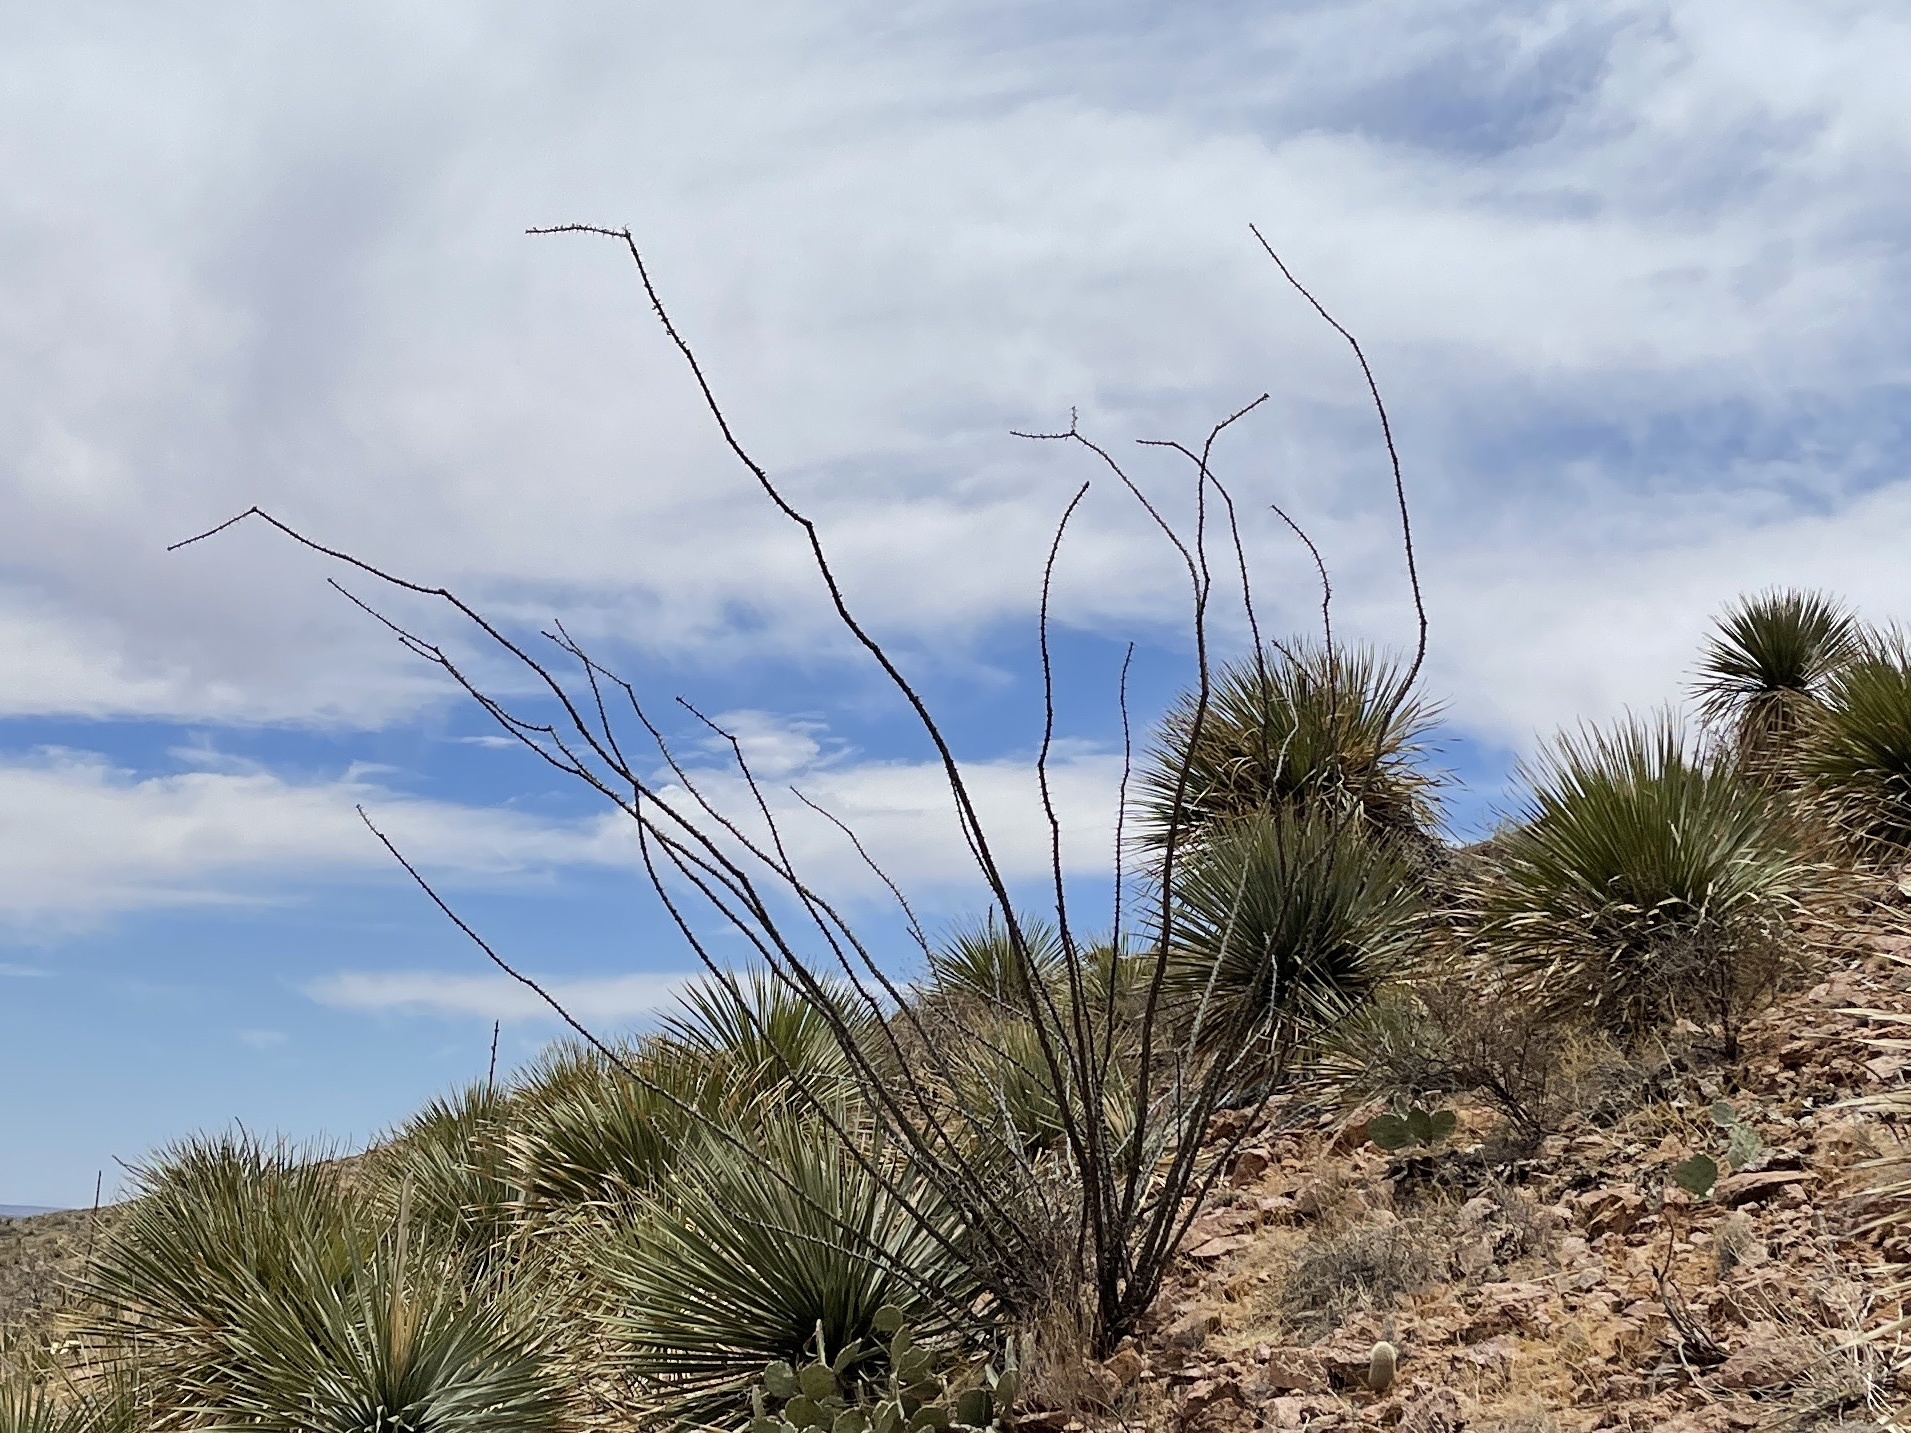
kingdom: Plantae
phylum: Tracheophyta
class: Magnoliopsida
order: Ericales
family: Fouquieriaceae
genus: Fouquieria
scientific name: Fouquieria splendens
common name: Vine-cactus
